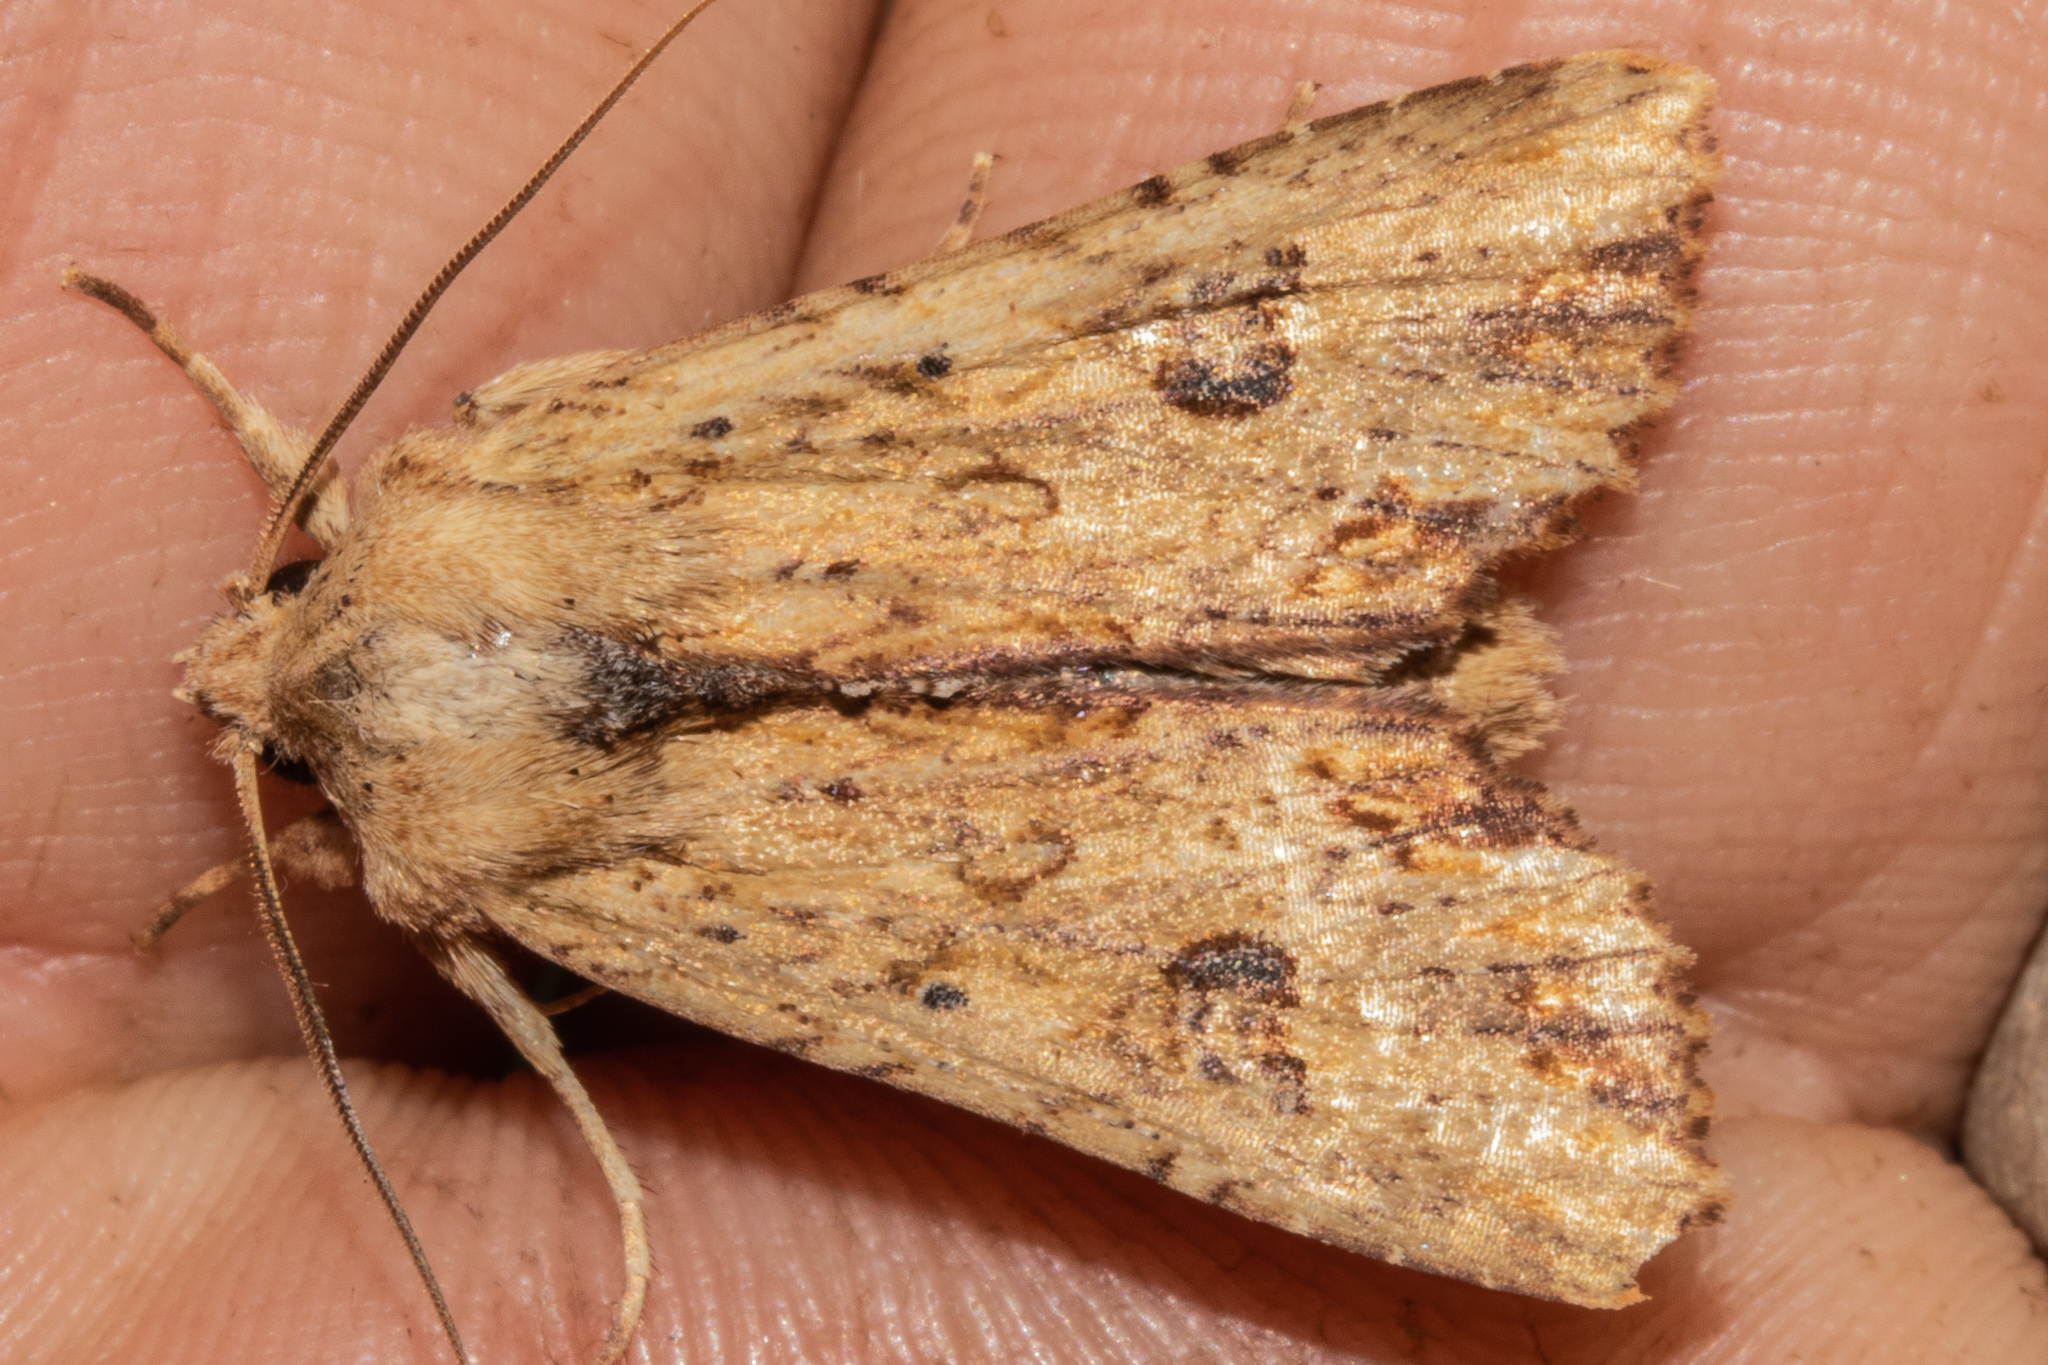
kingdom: Animalia
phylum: Arthropoda
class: Insecta
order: Lepidoptera
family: Noctuidae
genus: Ichneutica
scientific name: Ichneutica
